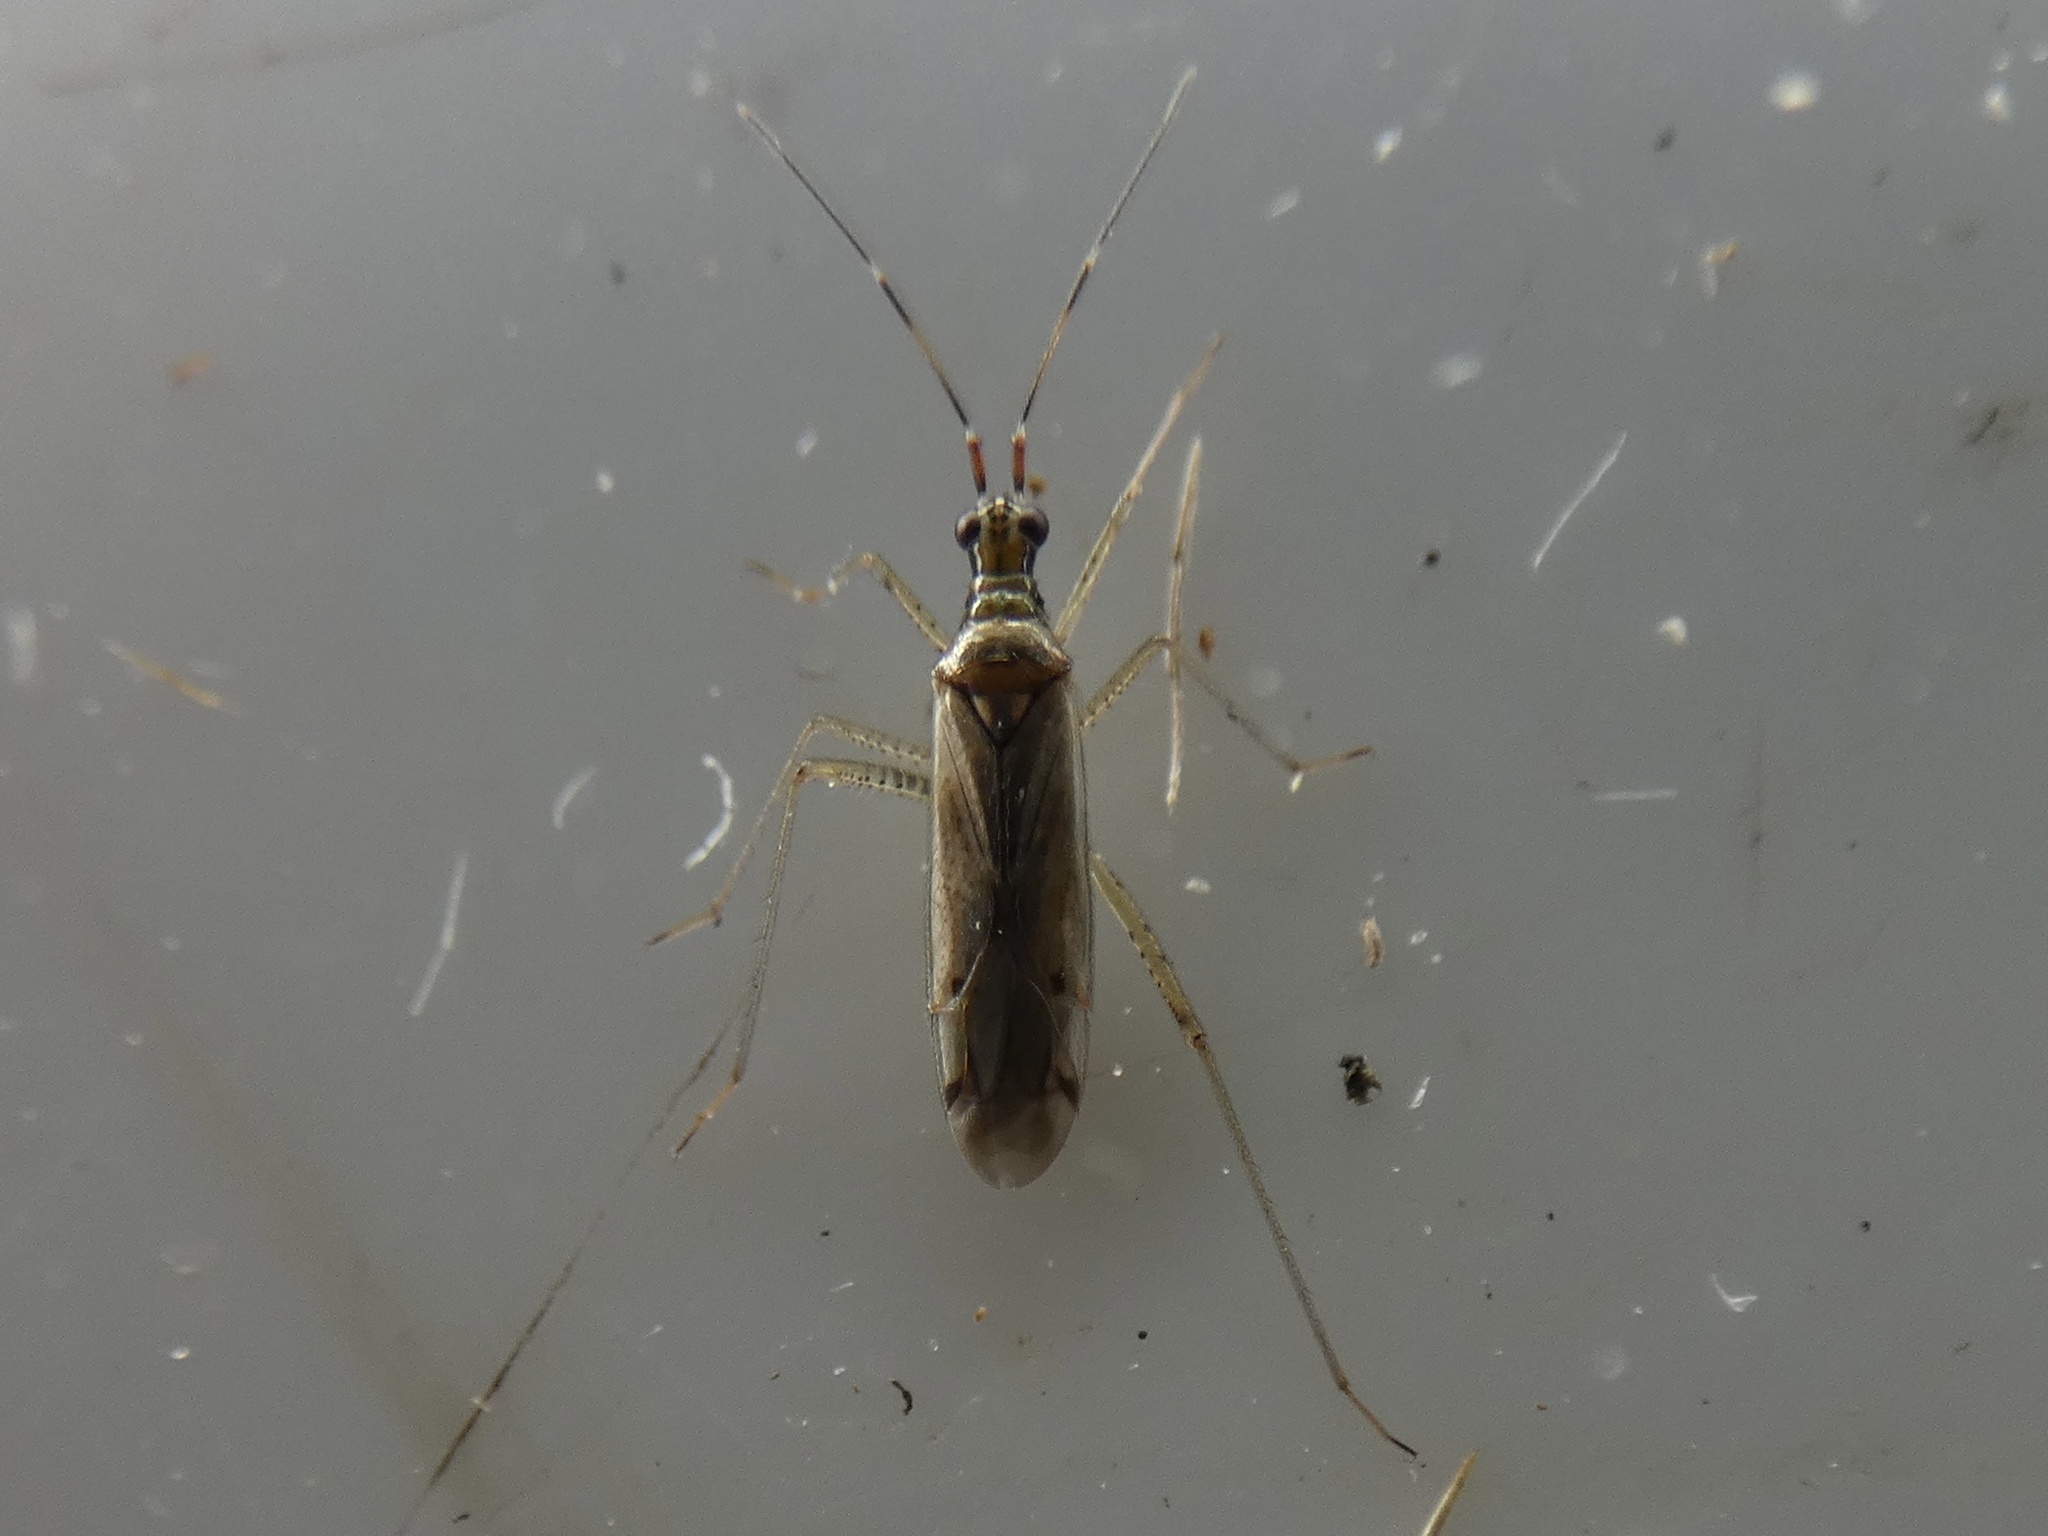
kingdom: Animalia
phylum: Arthropoda
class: Insecta
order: Hemiptera
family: Miridae
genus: Dicyphus
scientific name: Dicyphus errans
